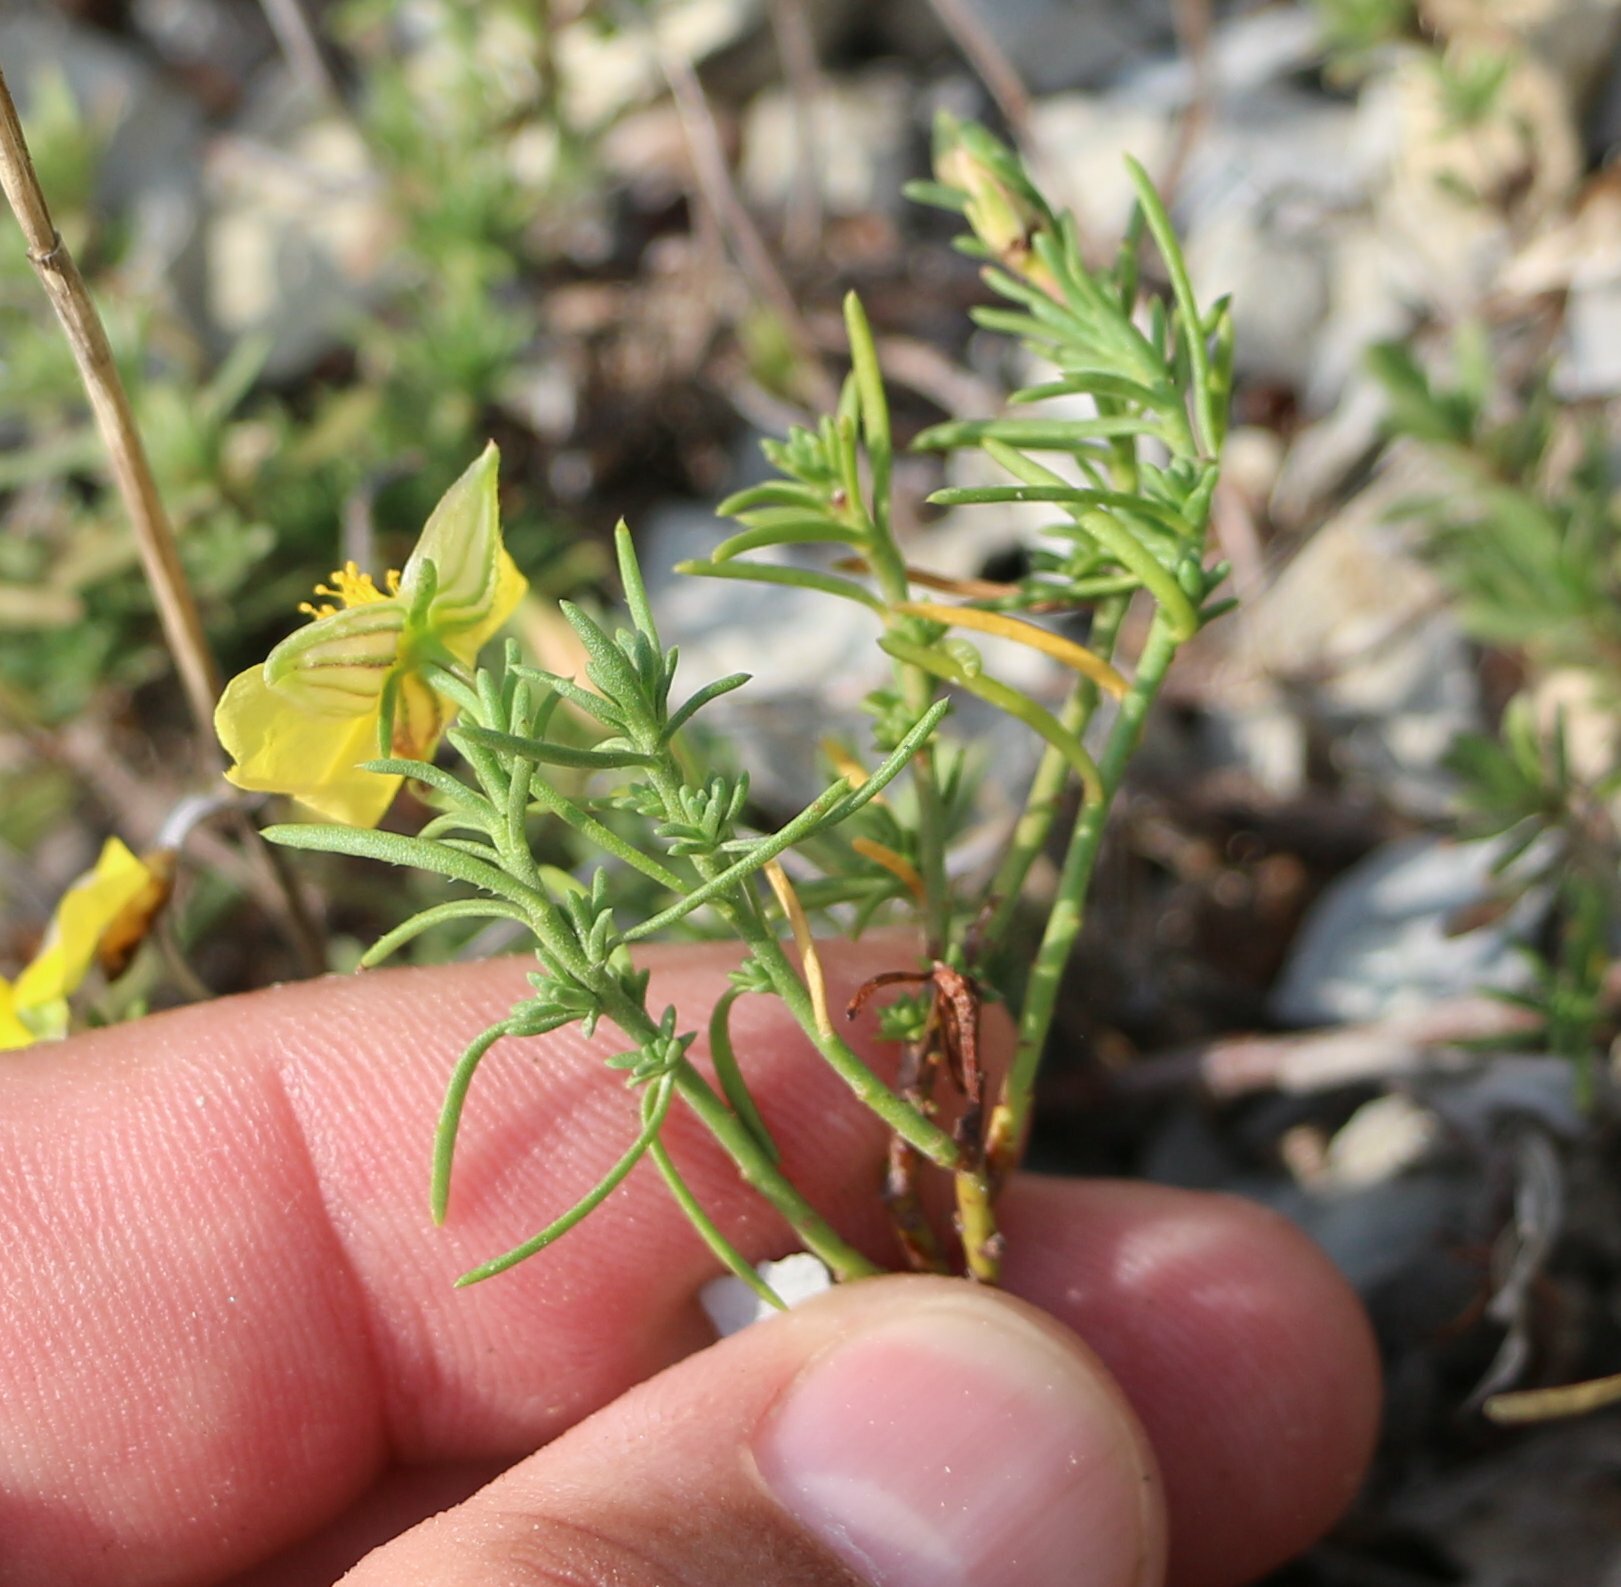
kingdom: Plantae
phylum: Tracheophyta
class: Magnoliopsida
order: Malvales
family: Cistaceae
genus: Fumana
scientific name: Fumana procumbens
